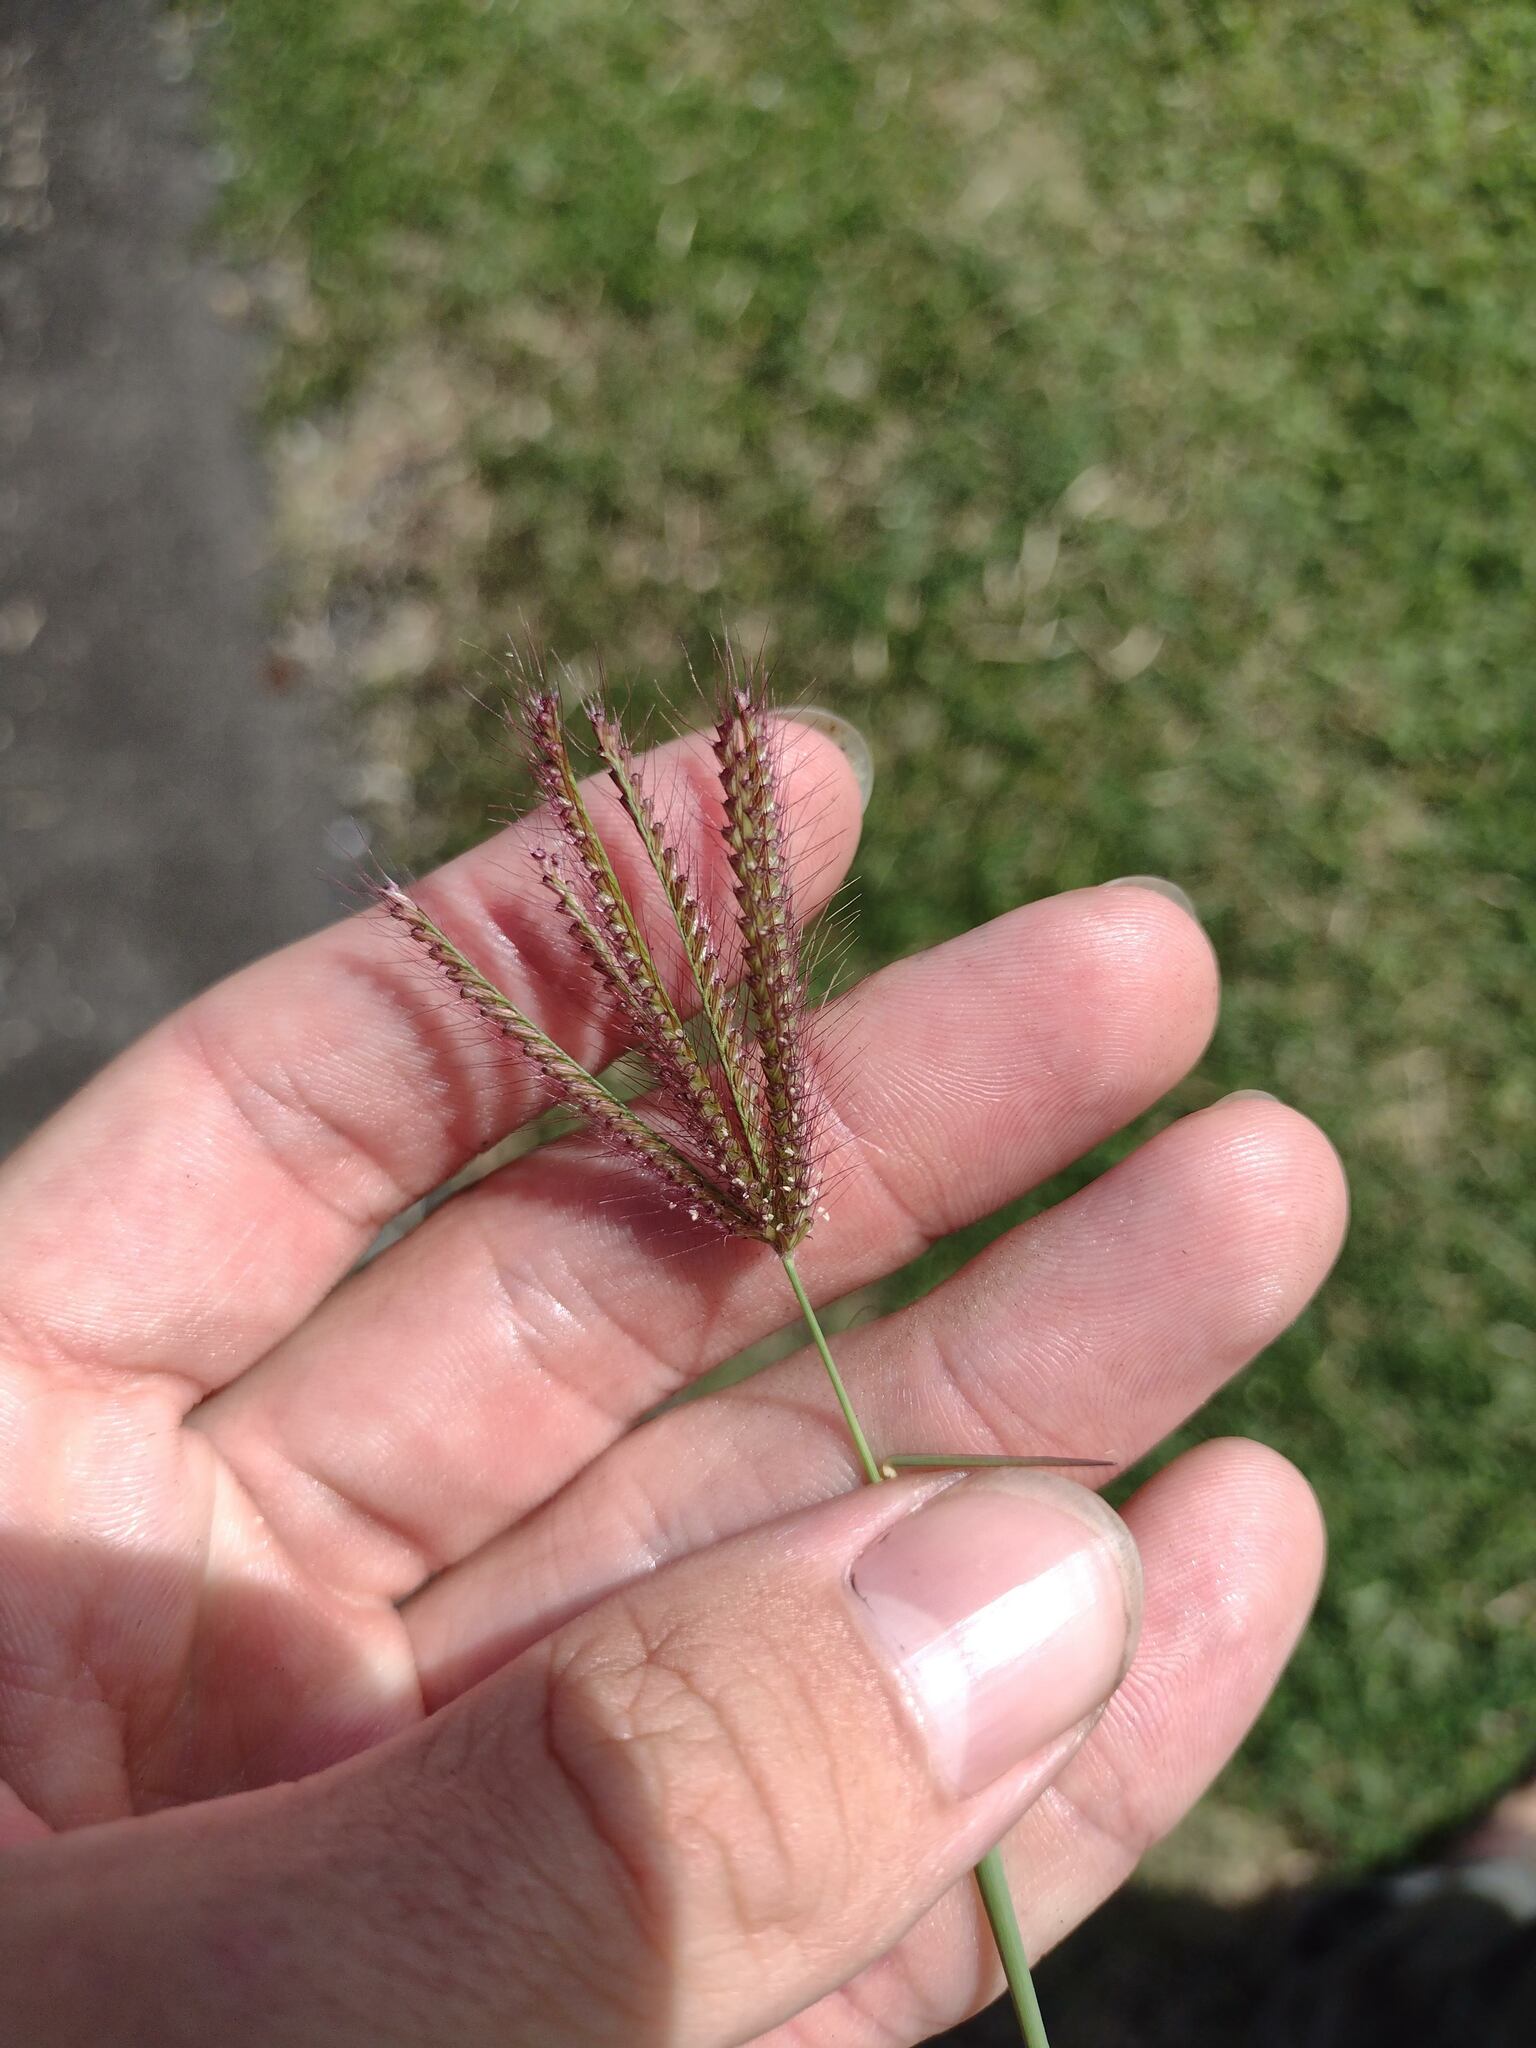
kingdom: Plantae
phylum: Tracheophyta
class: Liliopsida
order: Poales
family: Poaceae
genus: Chloris
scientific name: Chloris barbata
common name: Swollen fingergrass
